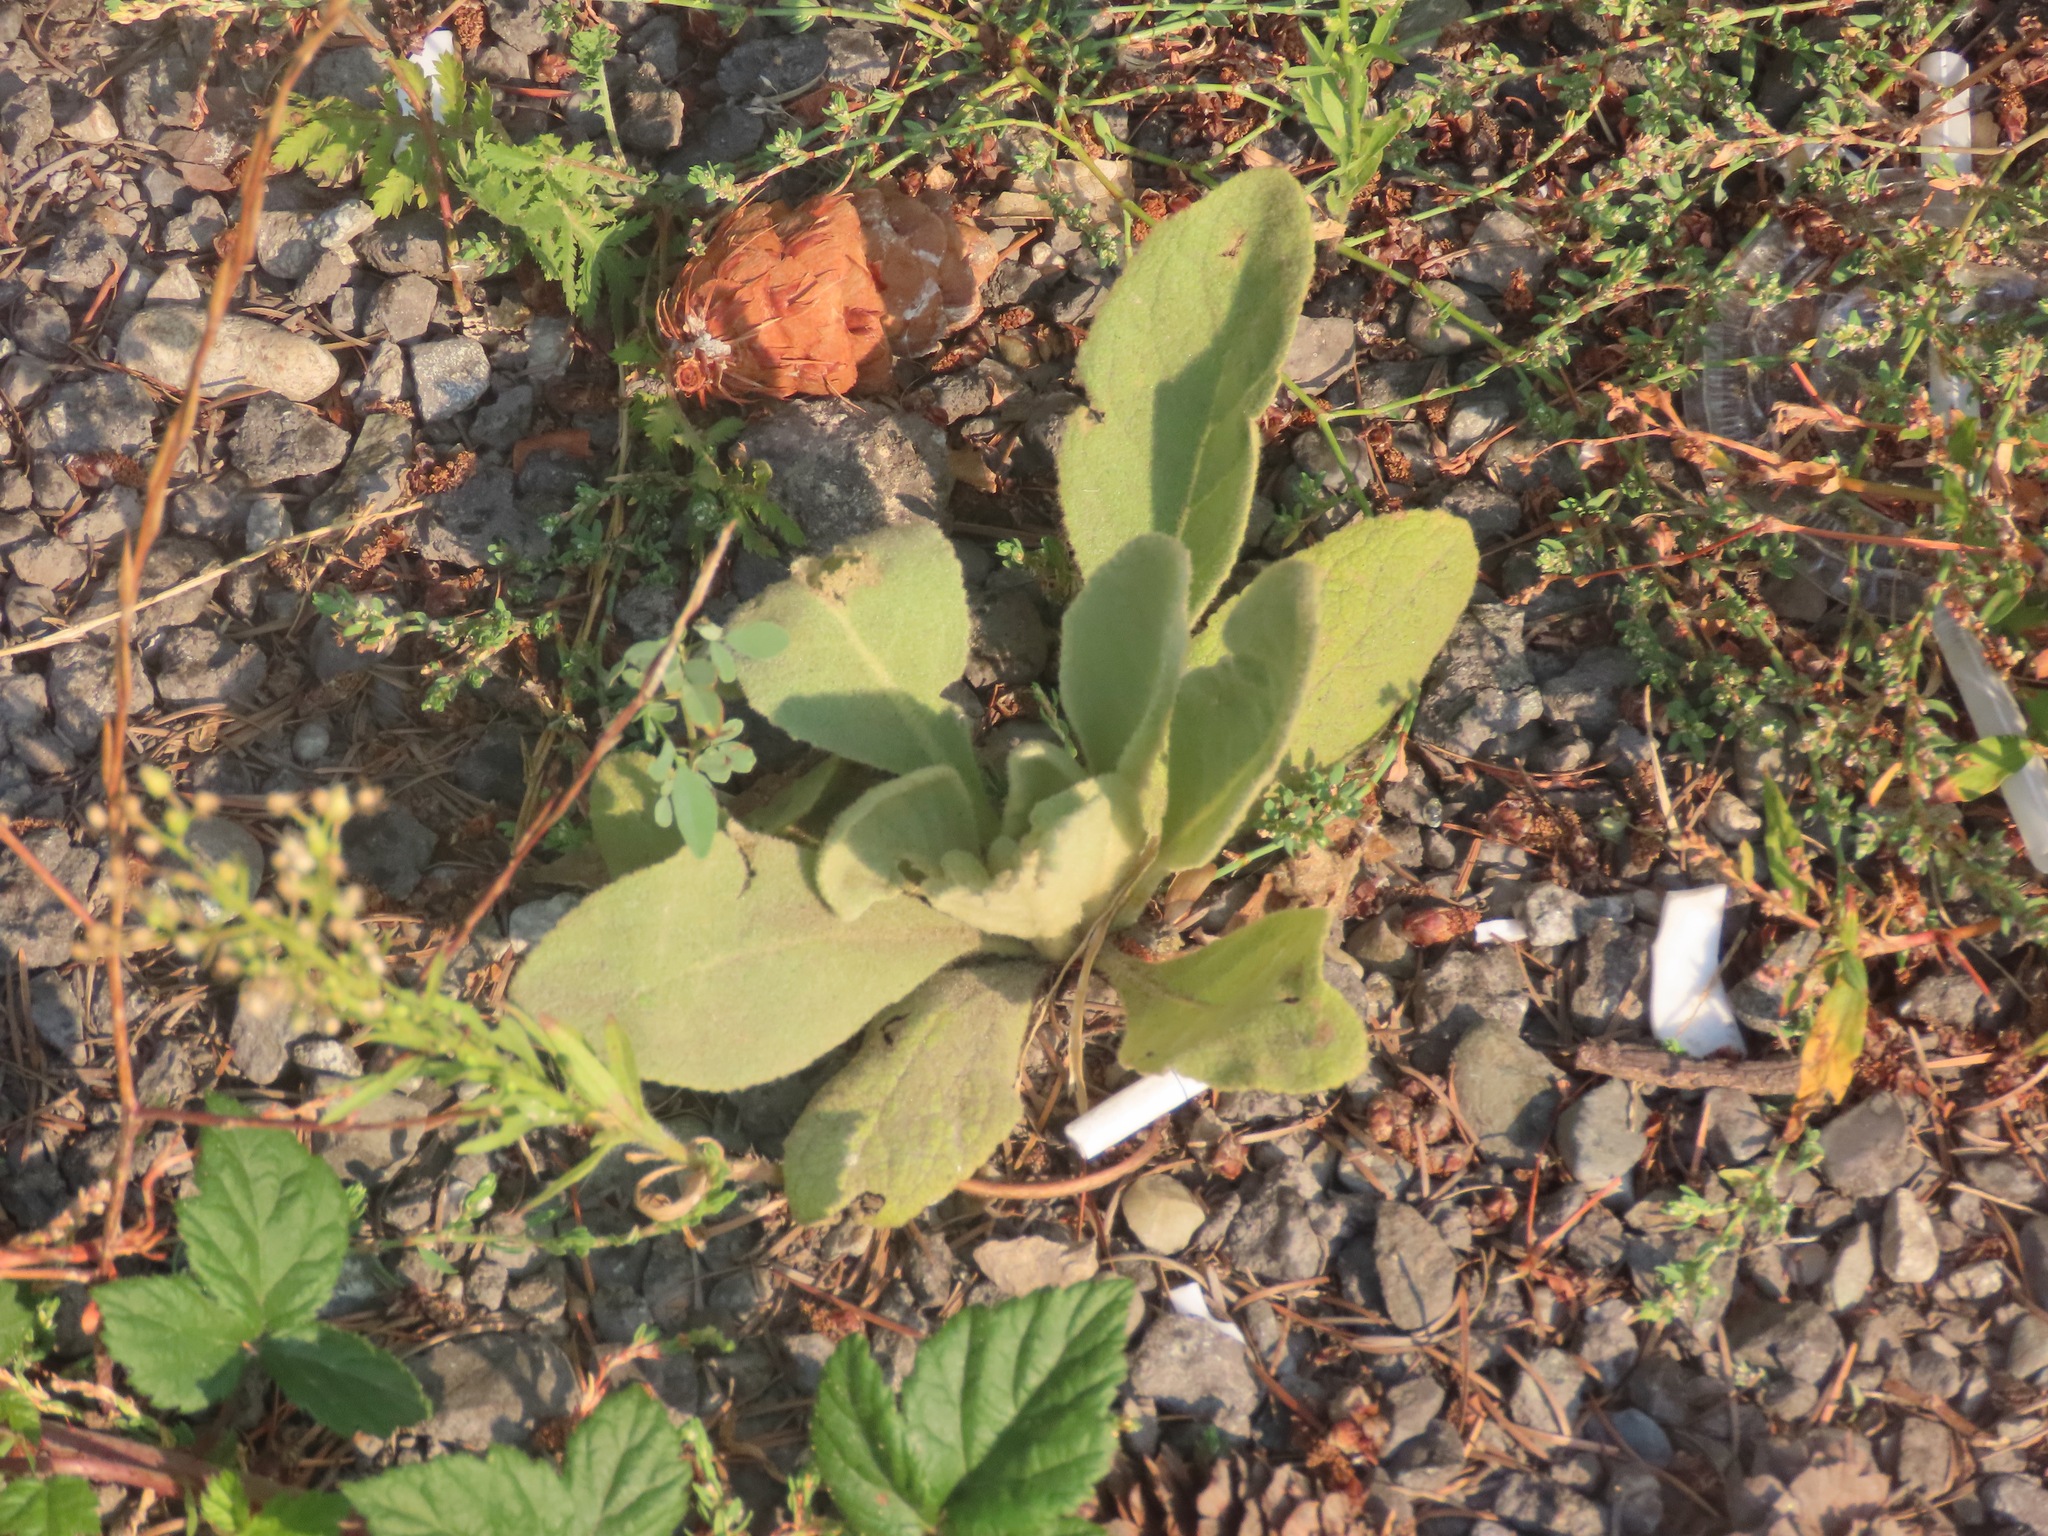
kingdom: Plantae
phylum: Tracheophyta
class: Magnoliopsida
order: Lamiales
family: Scrophulariaceae
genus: Verbascum
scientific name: Verbascum thapsus
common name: Common mullein
